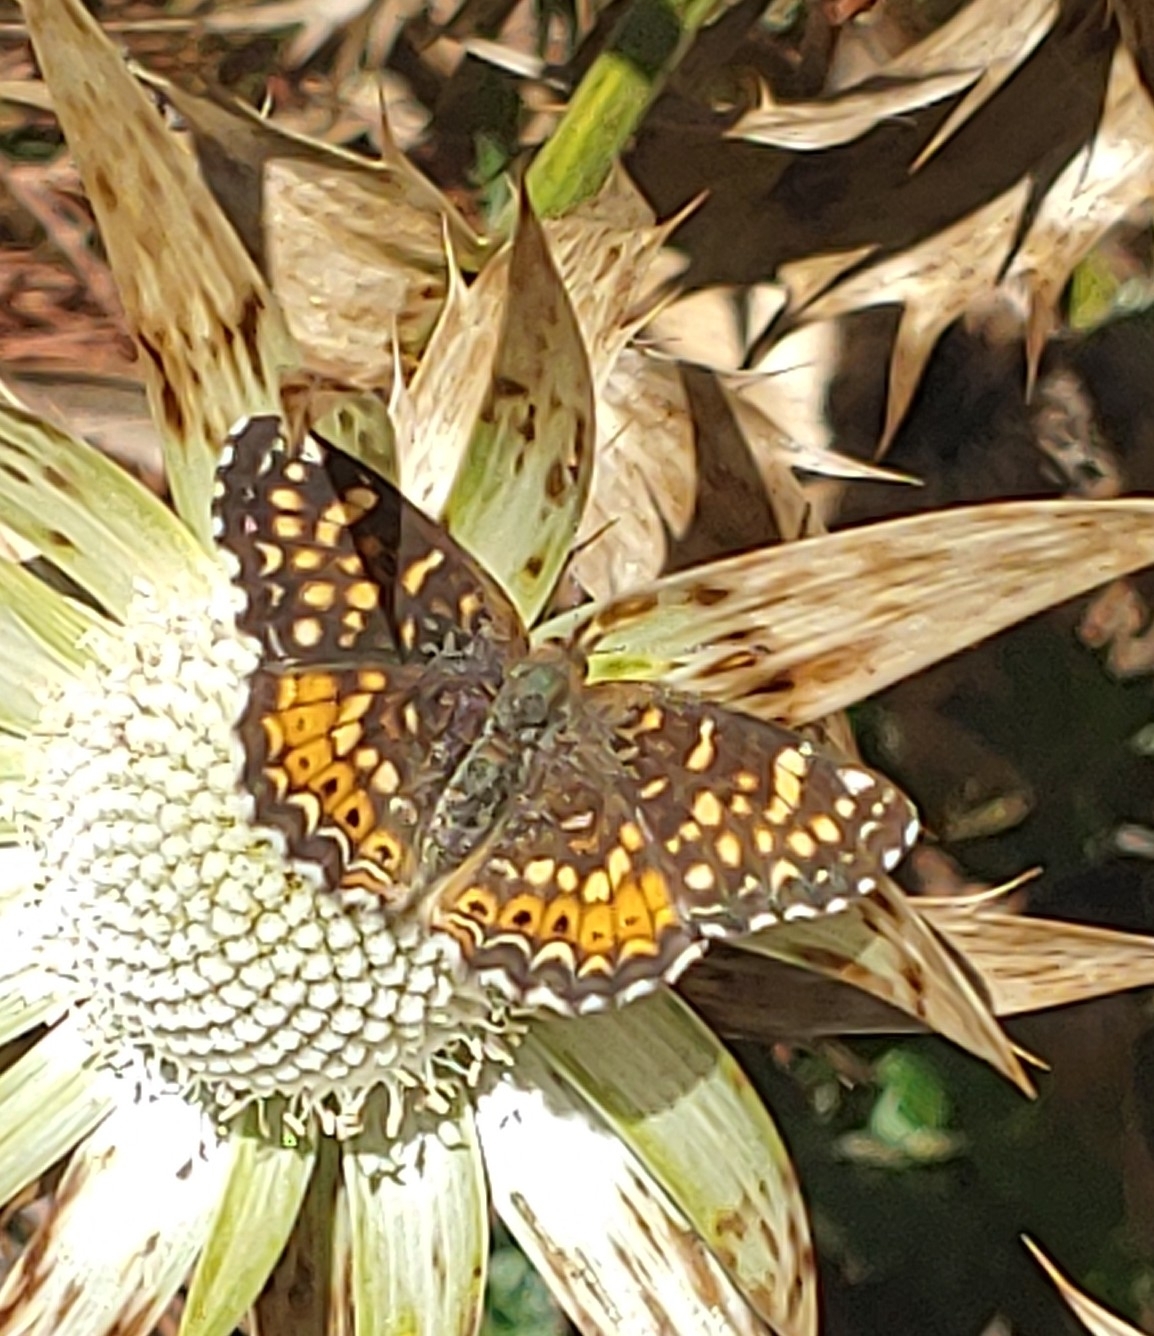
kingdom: Animalia
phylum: Arthropoda
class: Insecta
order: Lepidoptera
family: Nymphalidae
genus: Eresia
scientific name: Eresia aveyrona
